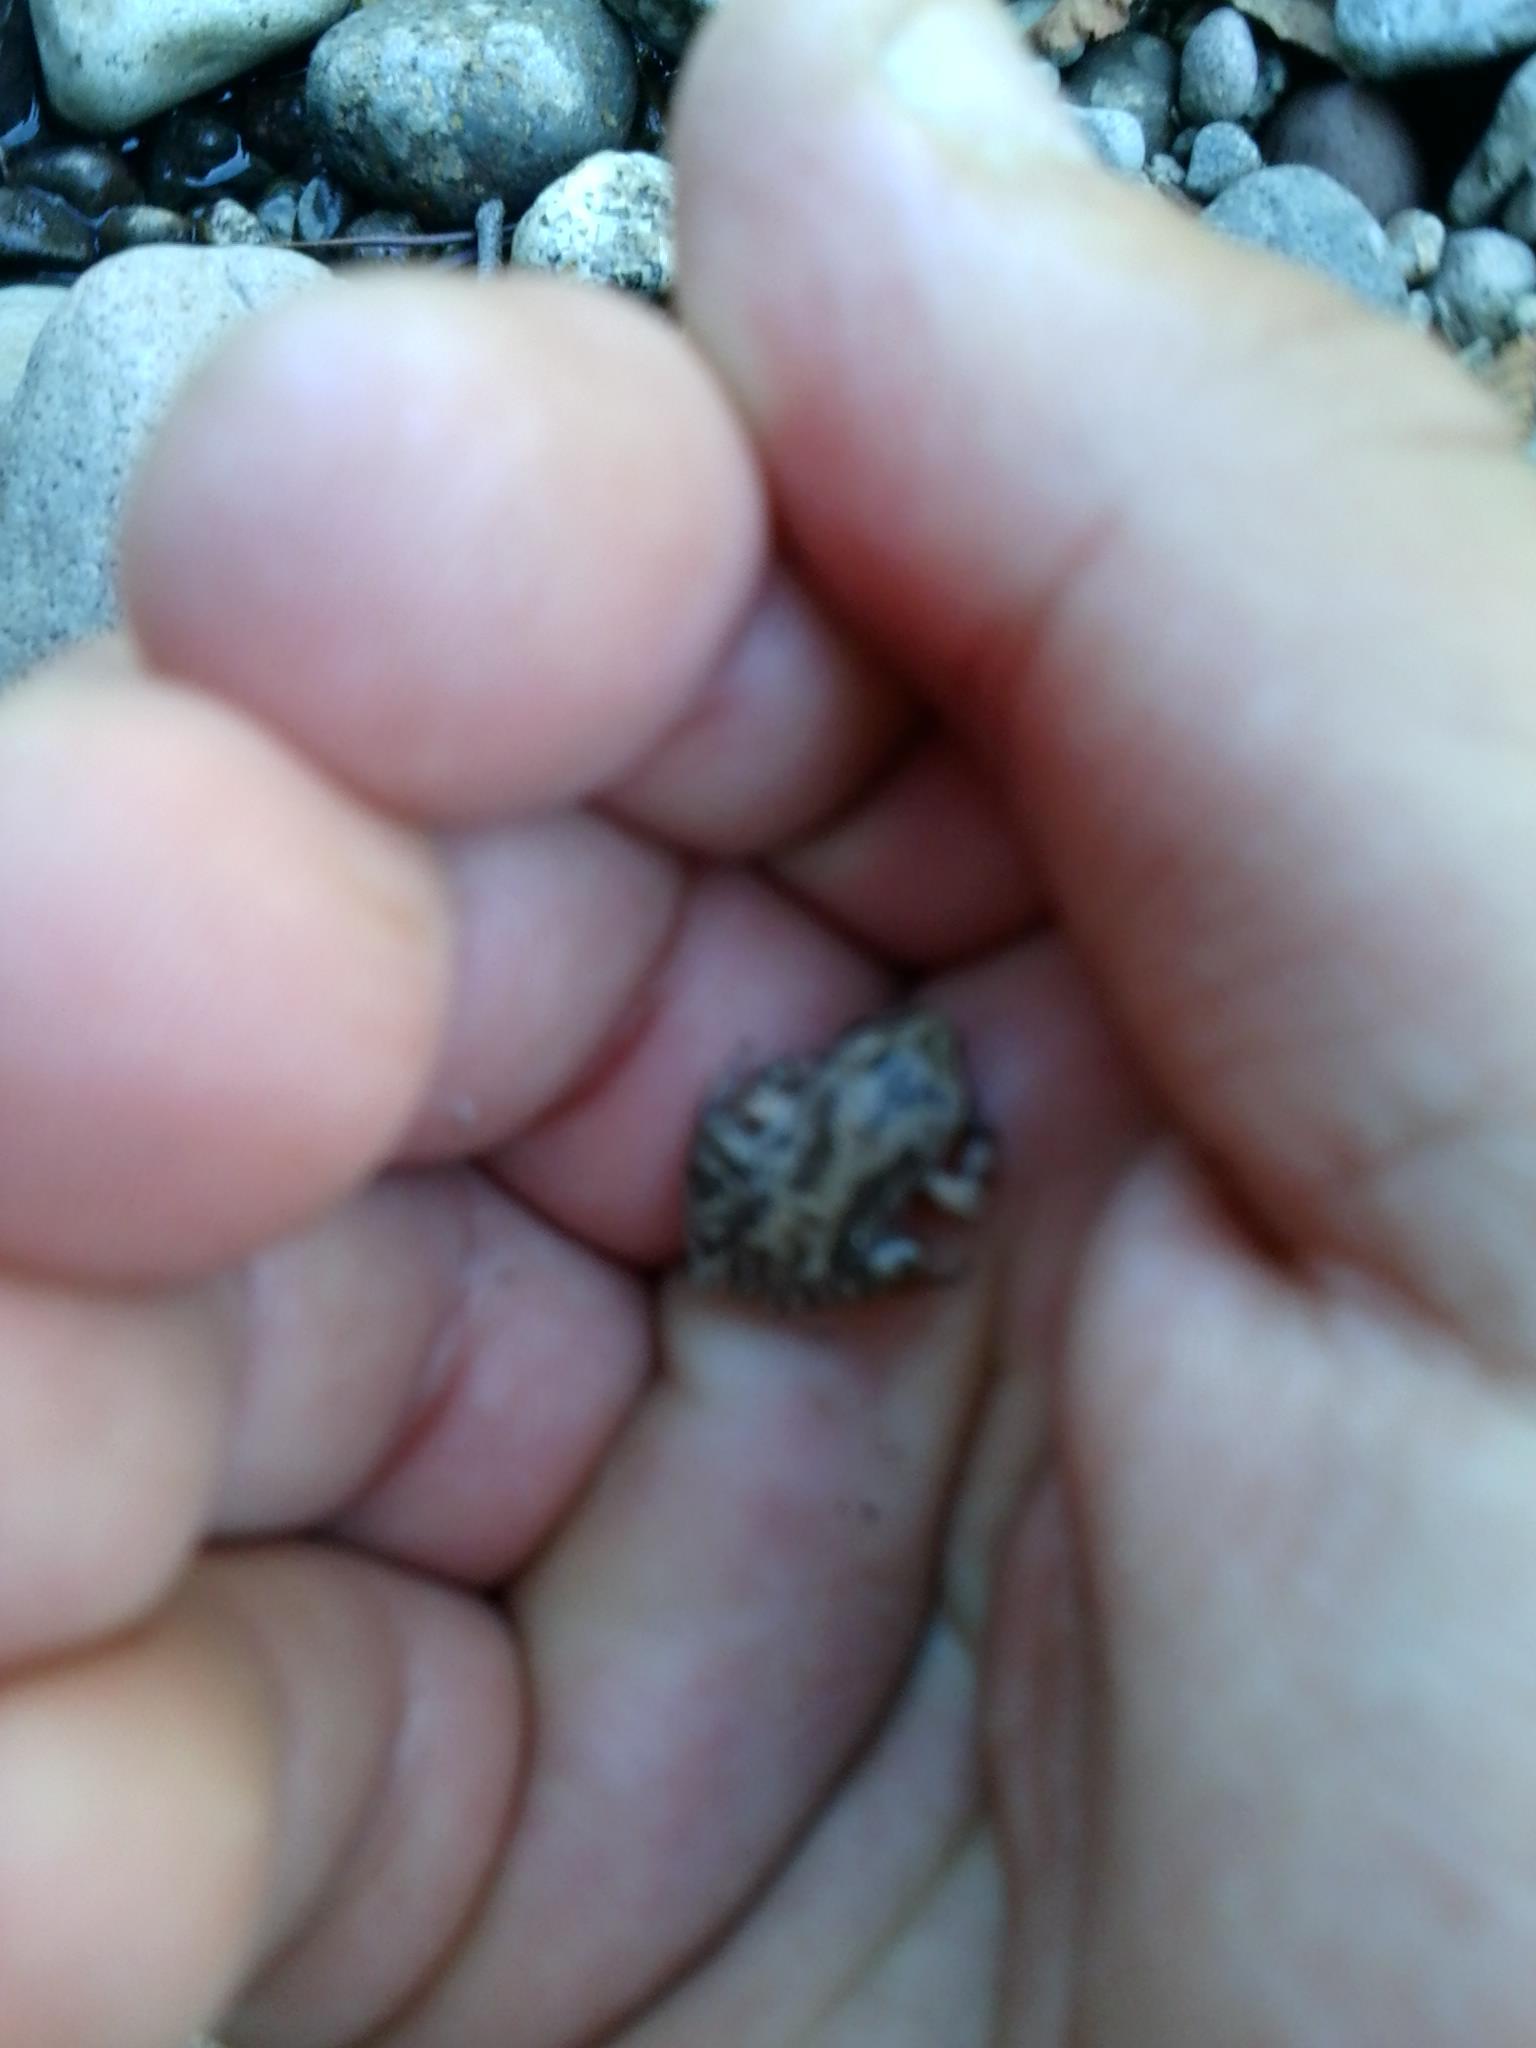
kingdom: Animalia
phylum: Chordata
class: Amphibia
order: Anura
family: Hylidae
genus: Pseudacris
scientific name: Pseudacris regilla
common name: Pacific chorus frog
